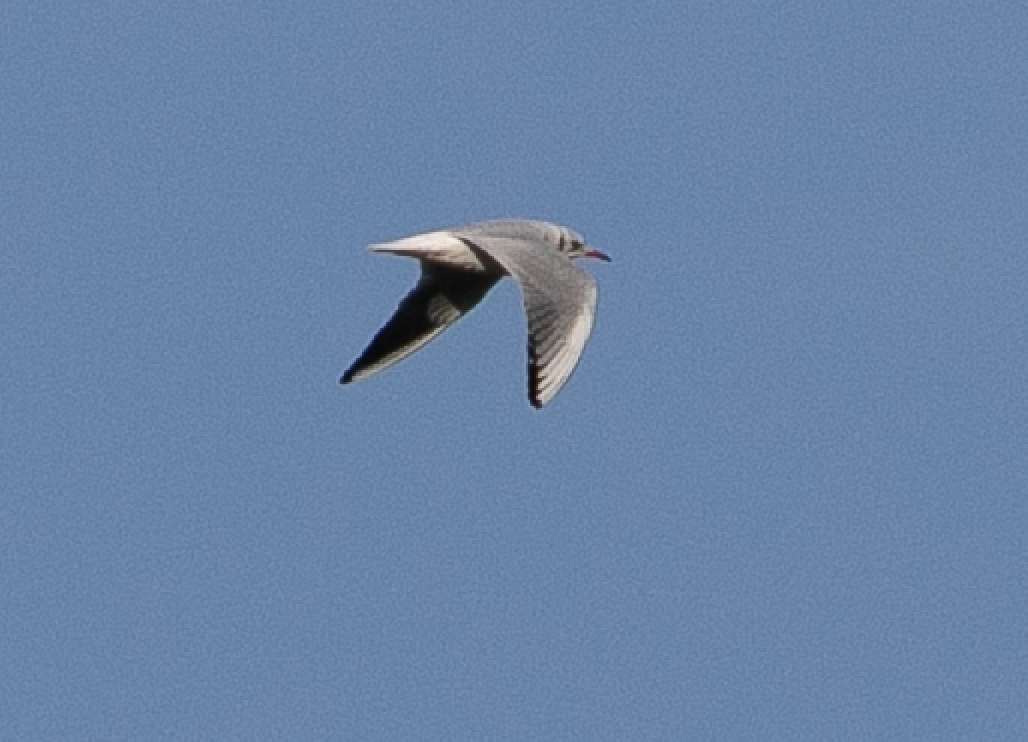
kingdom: Animalia
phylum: Chordata
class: Aves
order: Charadriiformes
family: Laridae
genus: Chroicocephalus
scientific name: Chroicocephalus ridibundus
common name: Black-headed gull
